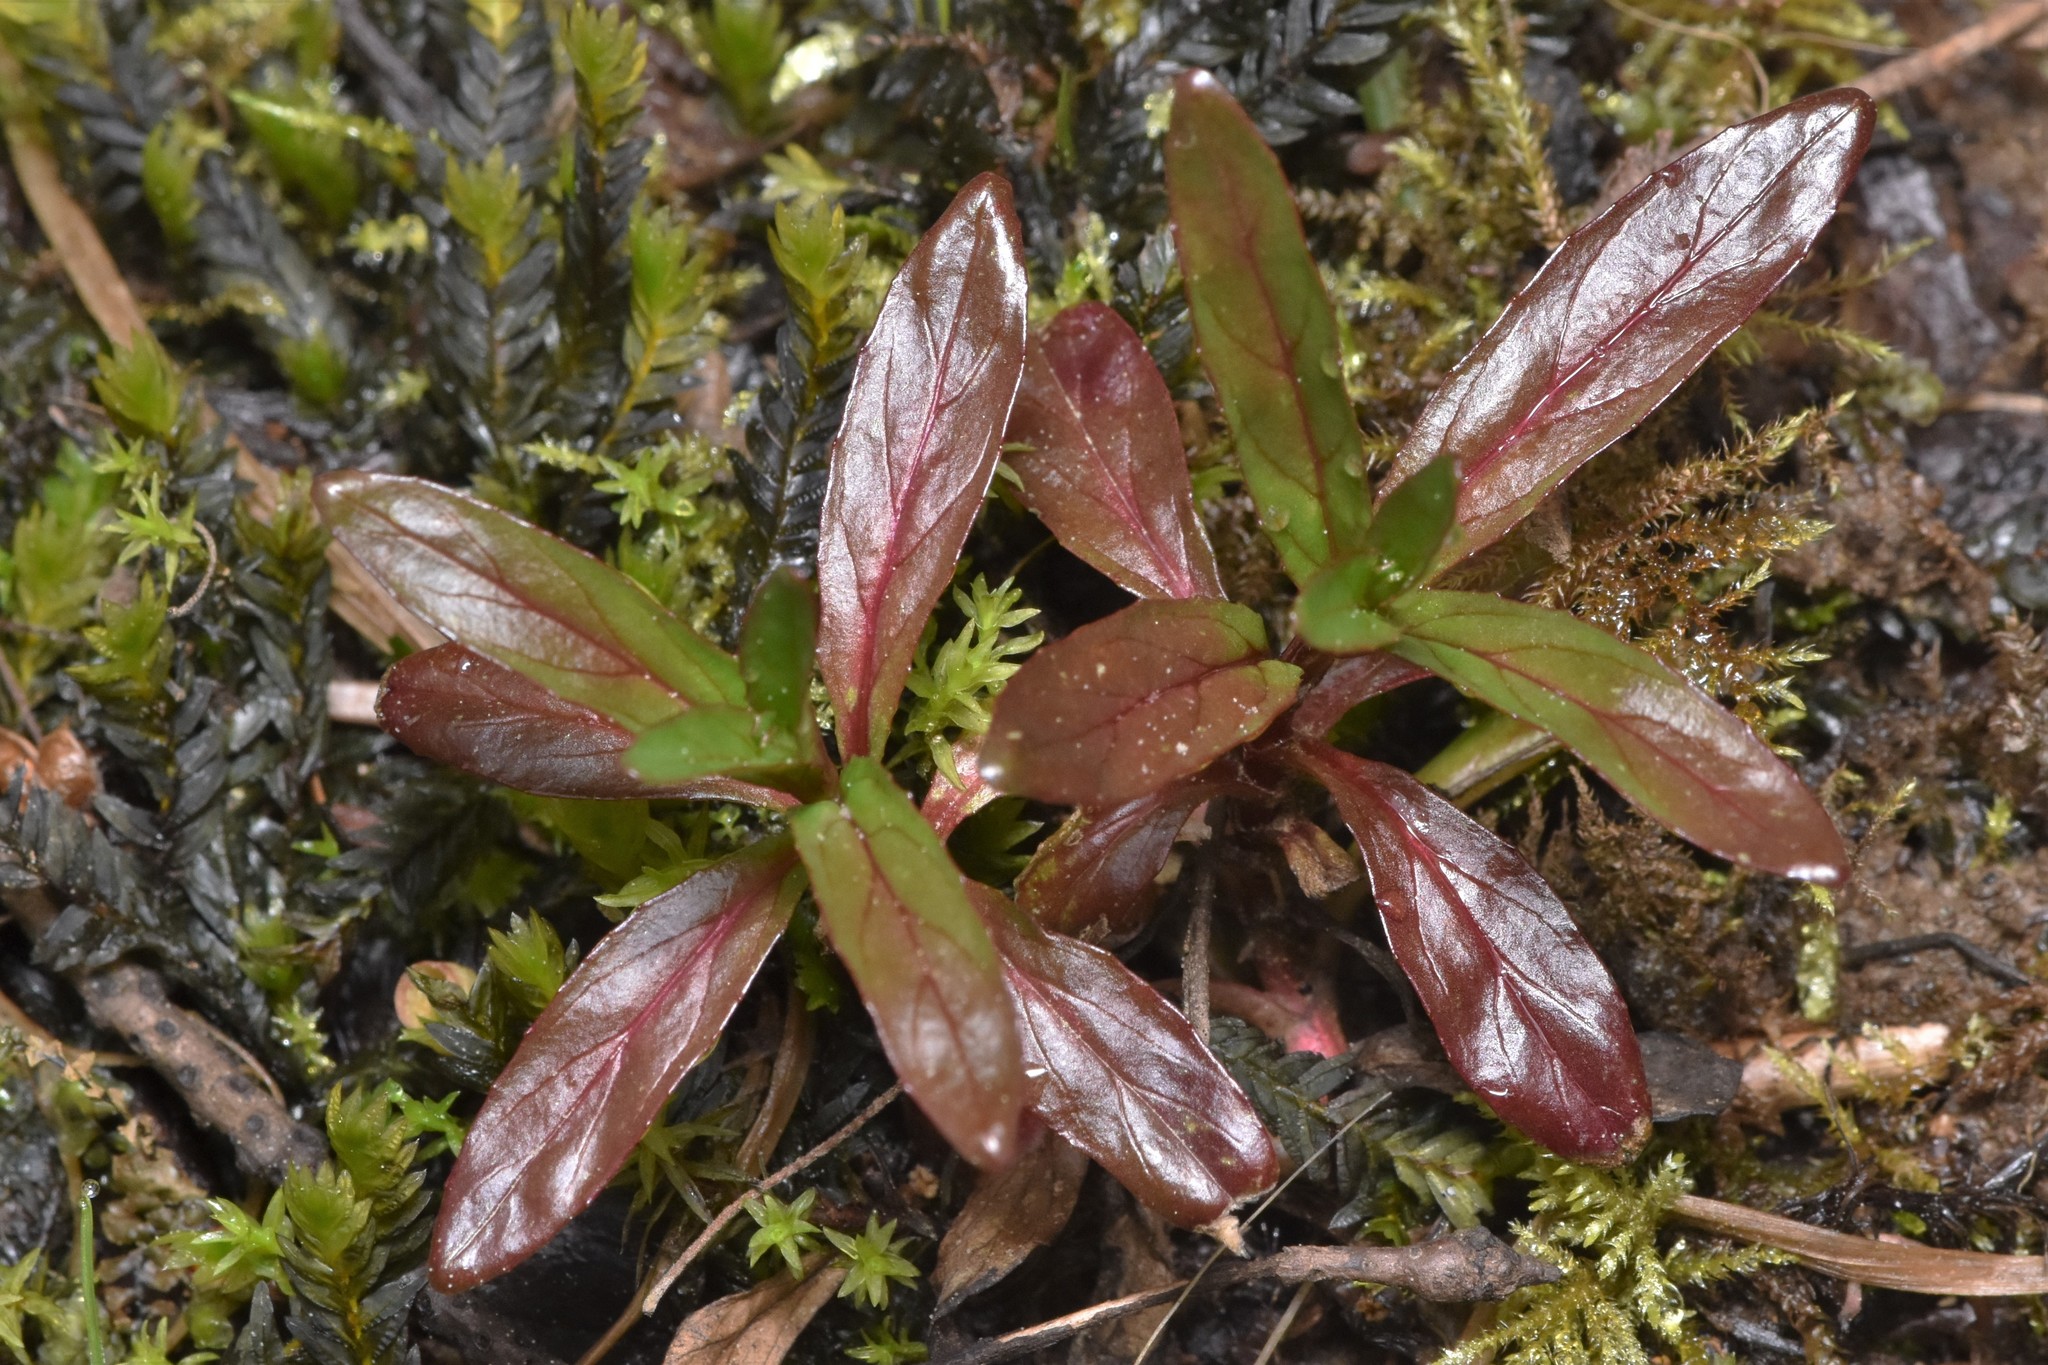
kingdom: Plantae
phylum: Tracheophyta
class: Magnoliopsida
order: Myrtales
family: Onagraceae
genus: Epilobium
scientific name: Epilobium ciliatum
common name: American willowherb
